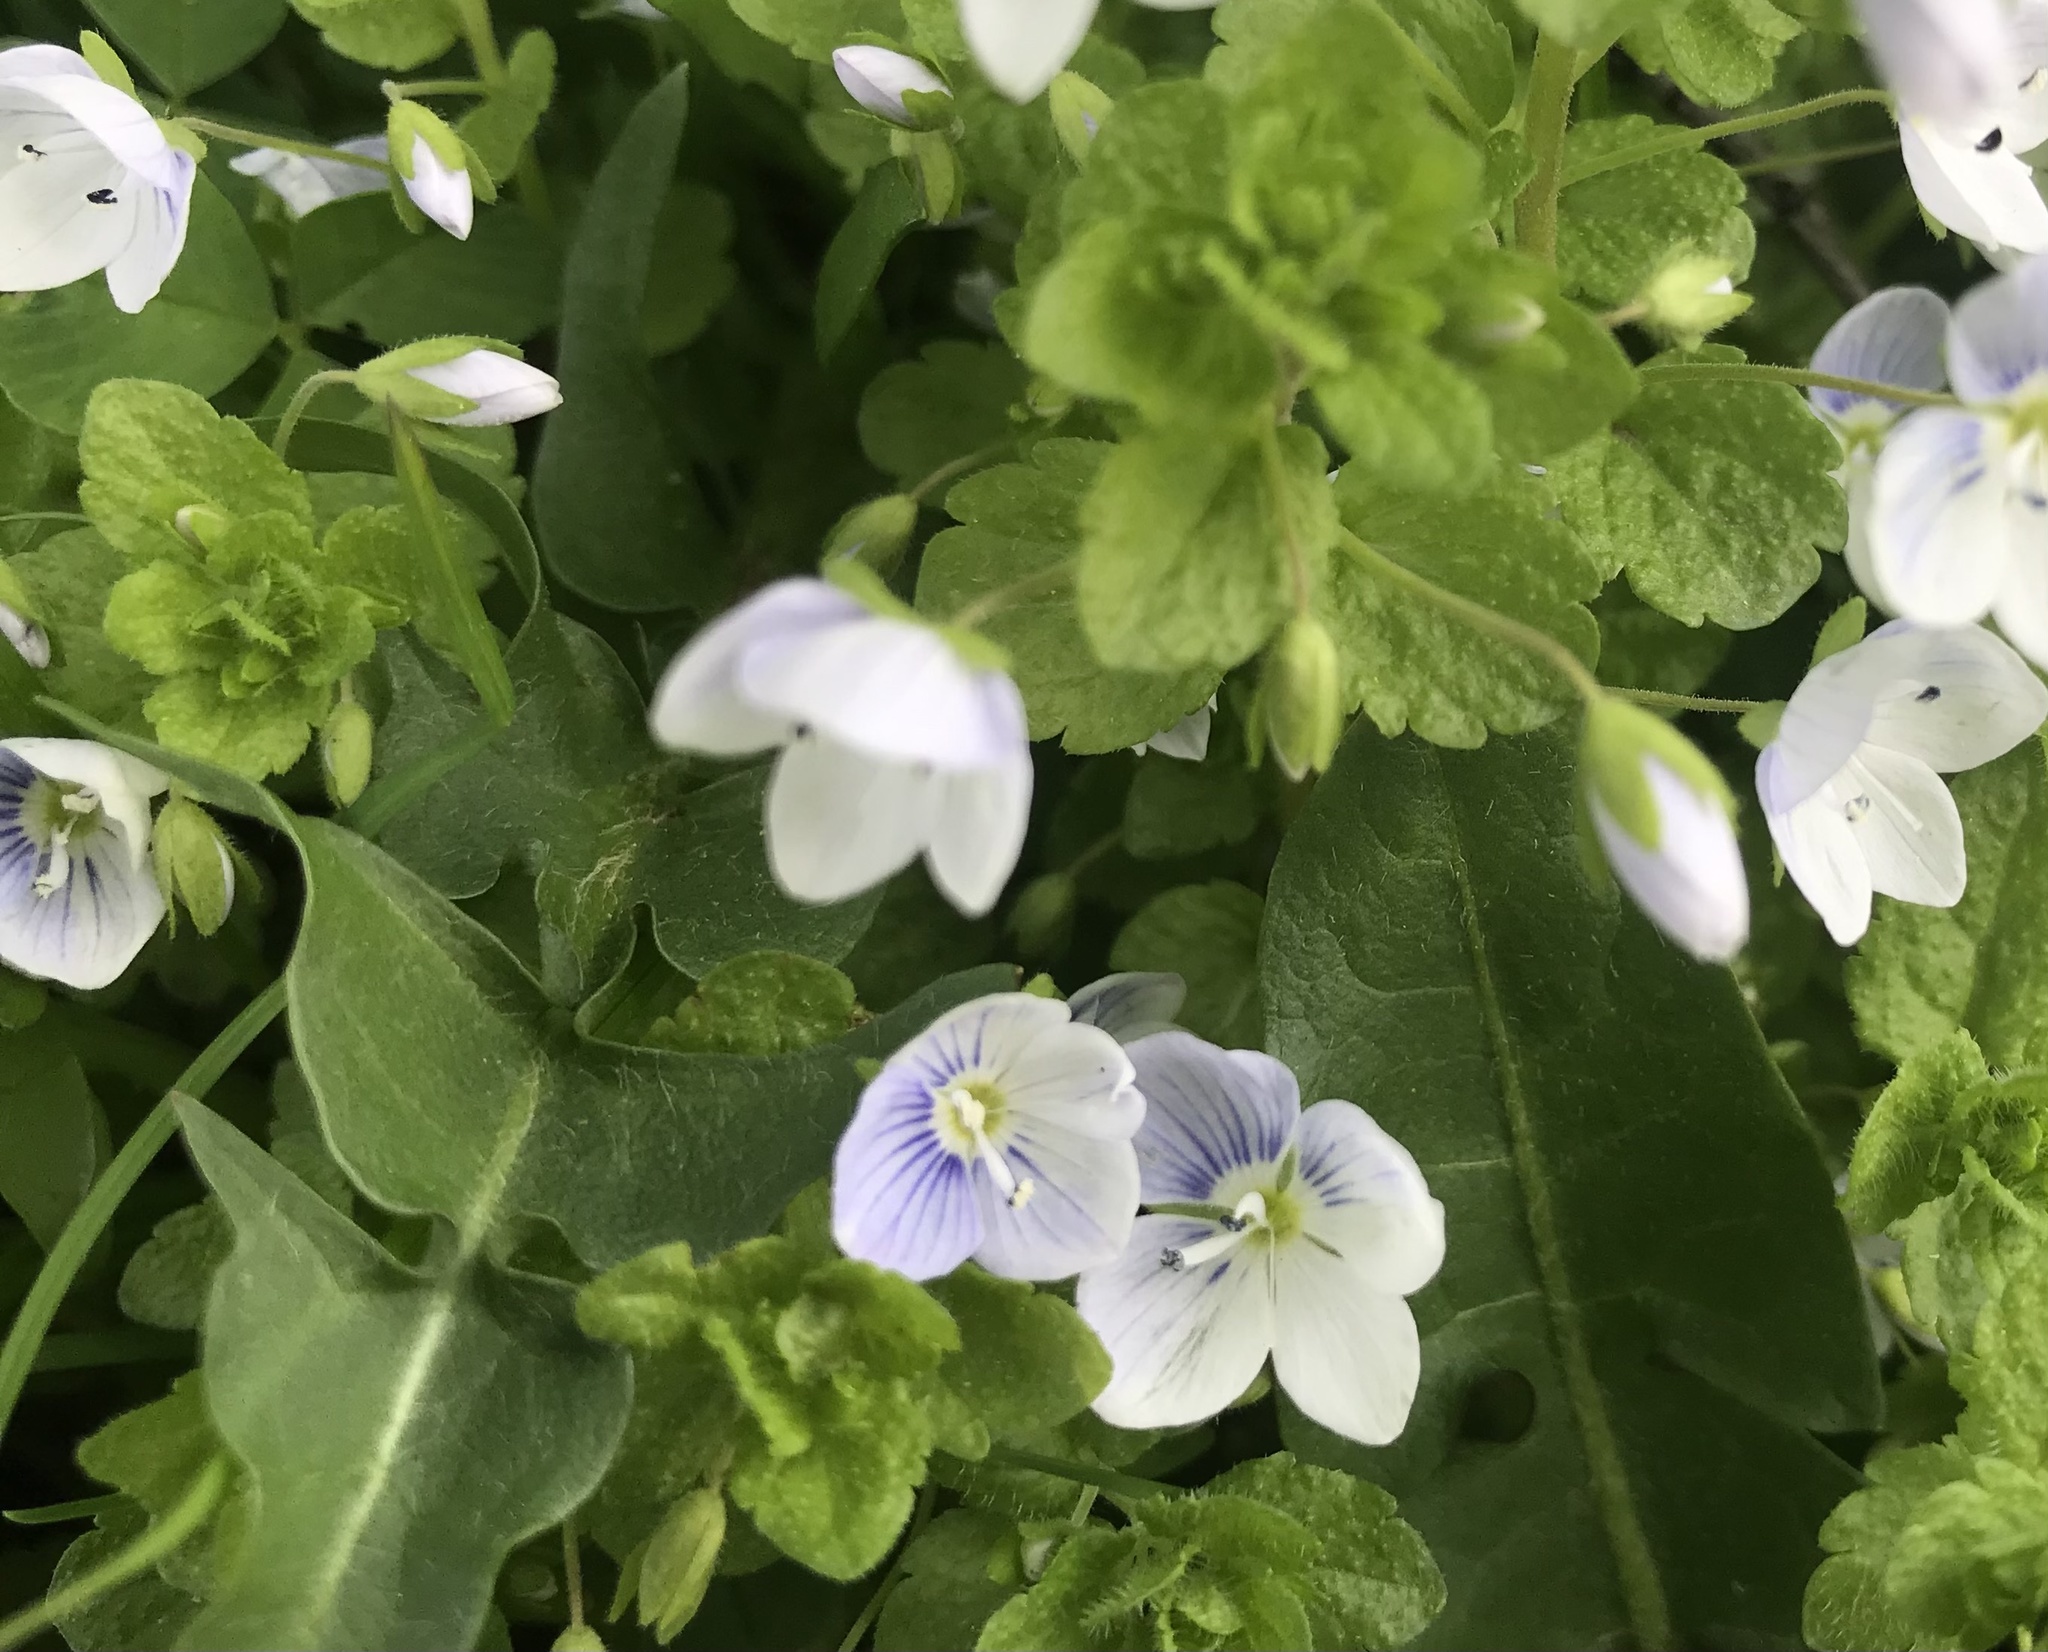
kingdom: Plantae
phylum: Tracheophyta
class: Magnoliopsida
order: Lamiales
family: Plantaginaceae
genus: Veronica
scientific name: Veronica filiformis
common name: Slender speedwell
